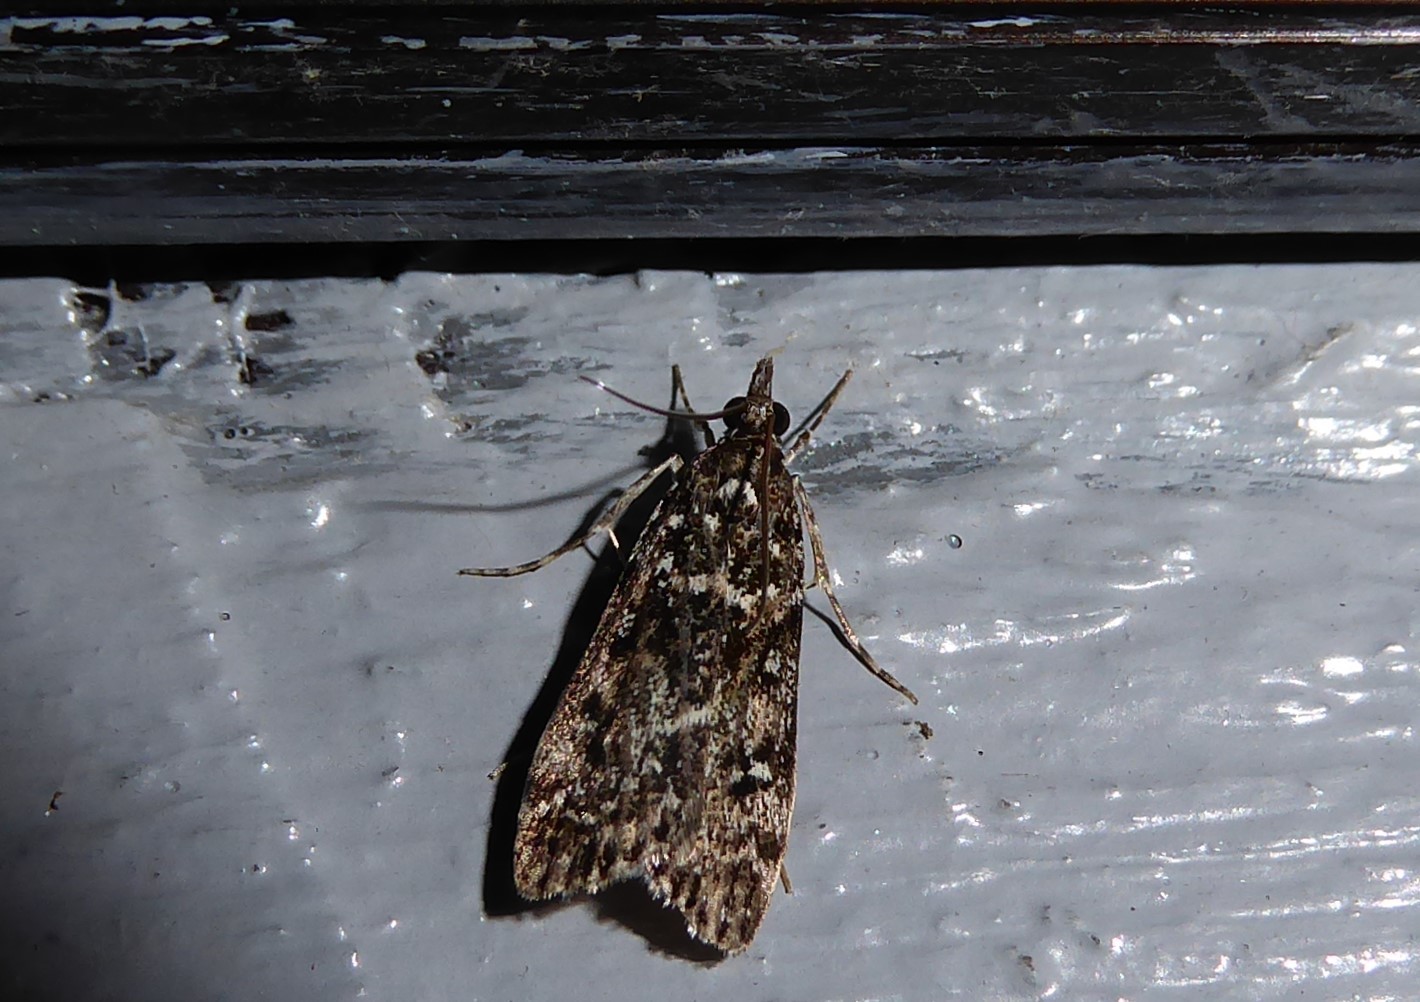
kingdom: Animalia
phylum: Arthropoda
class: Insecta
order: Lepidoptera
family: Crambidae
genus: Eudonia
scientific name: Eudonia philerga
